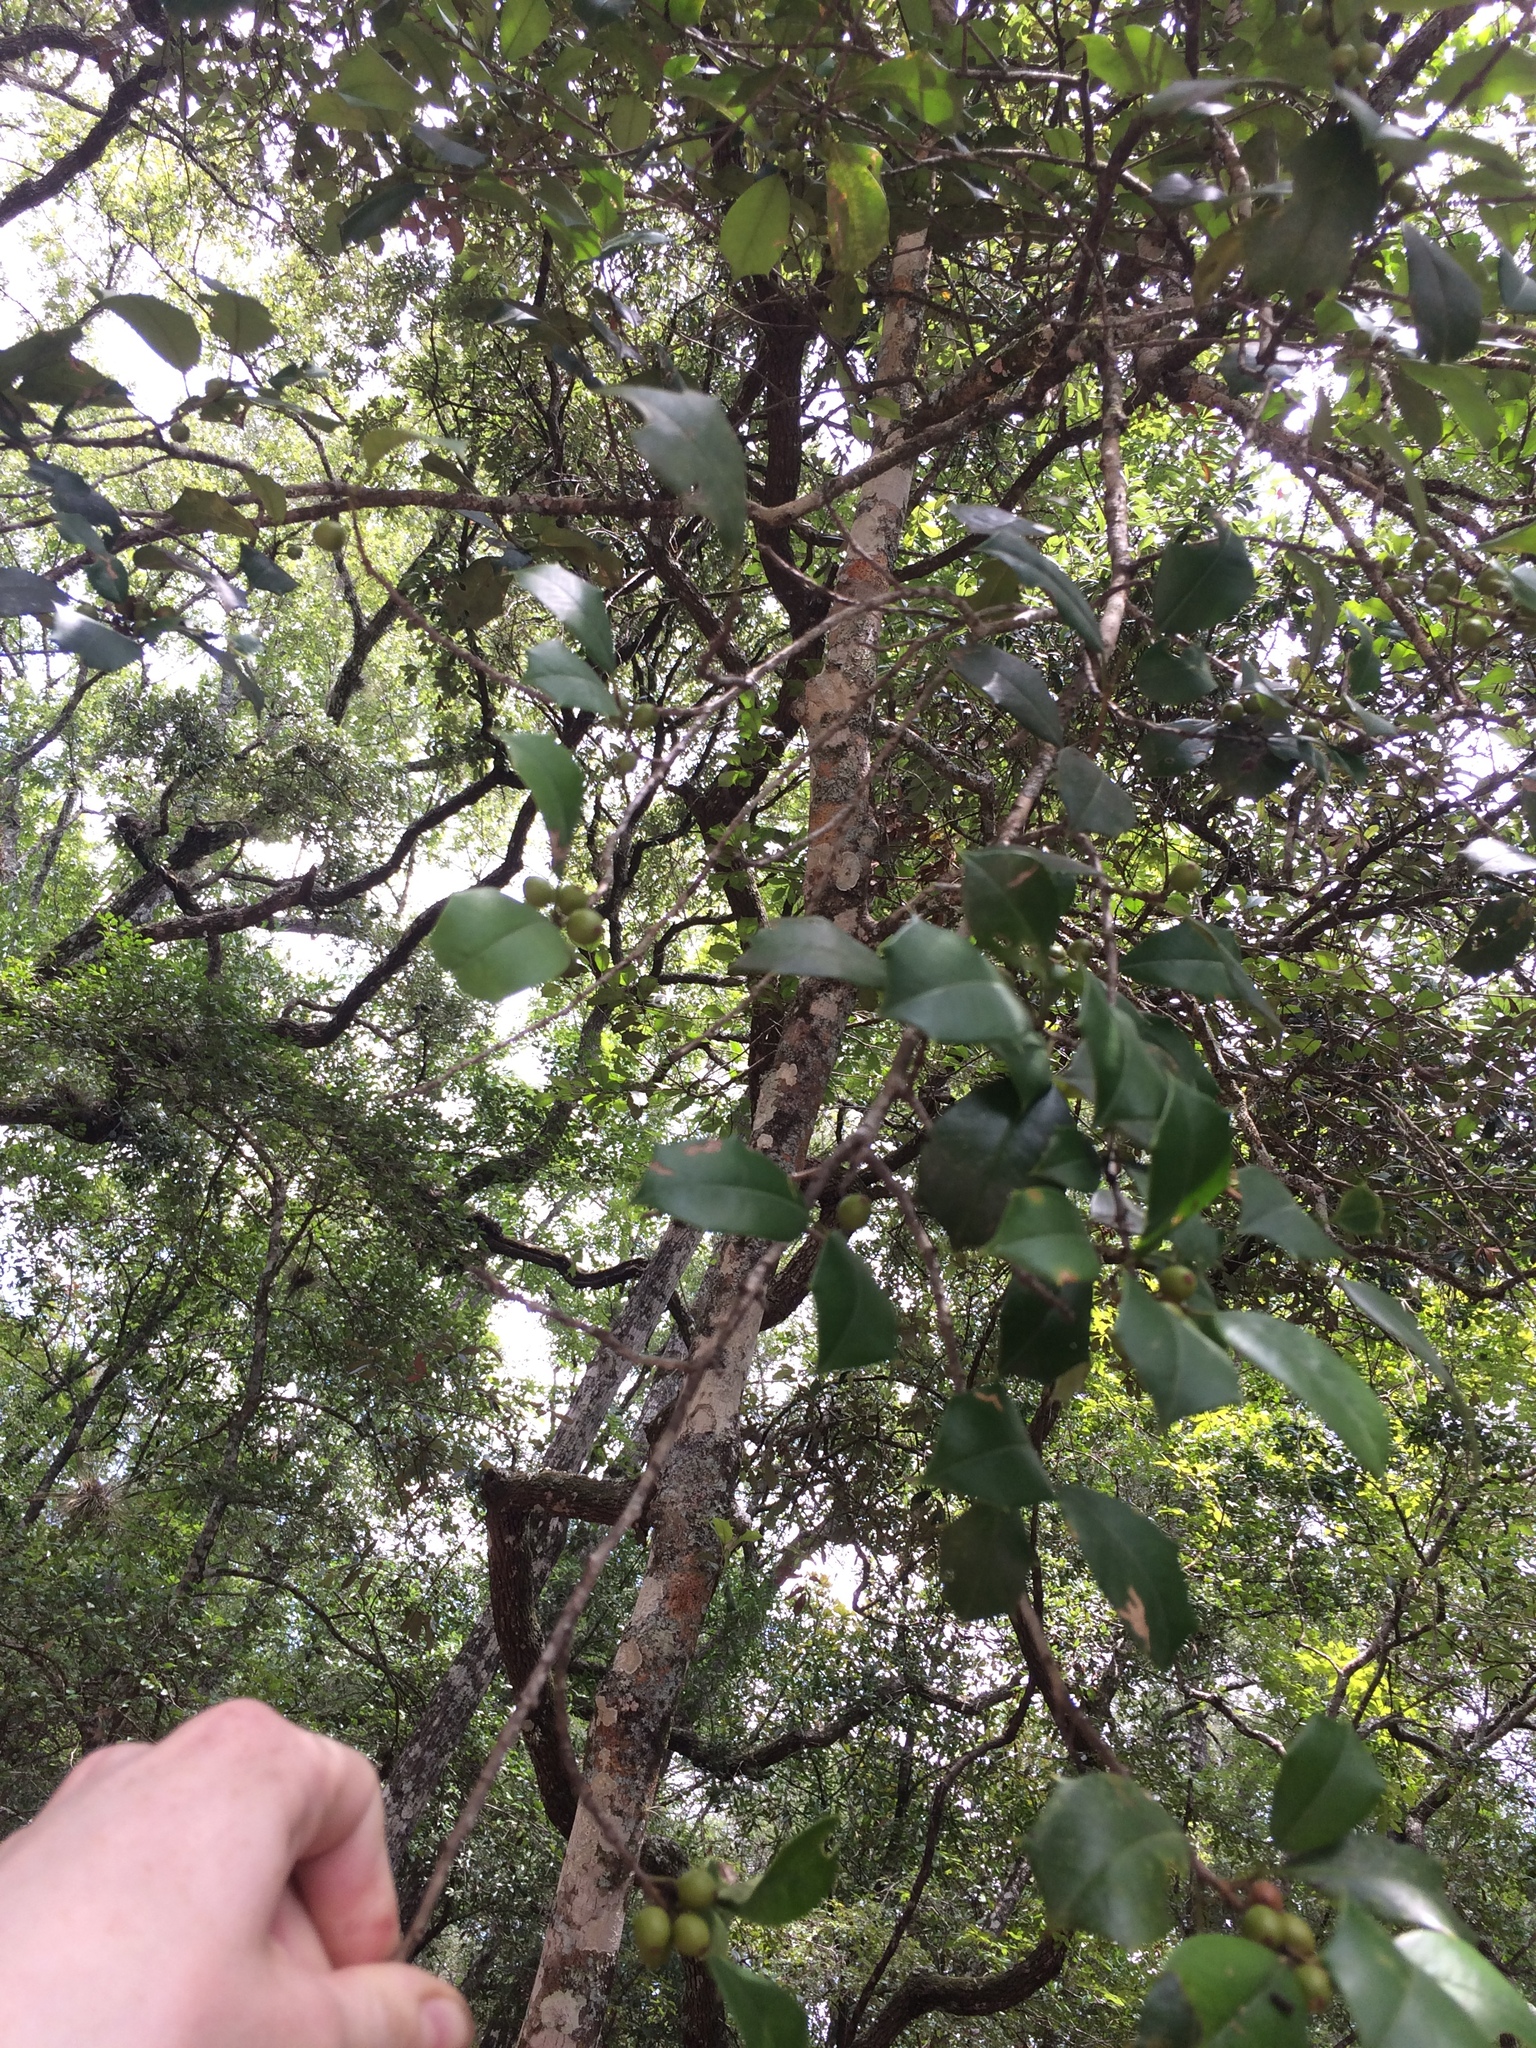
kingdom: Plantae
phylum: Tracheophyta
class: Magnoliopsida
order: Aquifoliales
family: Aquifoliaceae
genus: Ilex
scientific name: Ilex opaca
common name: American holly
